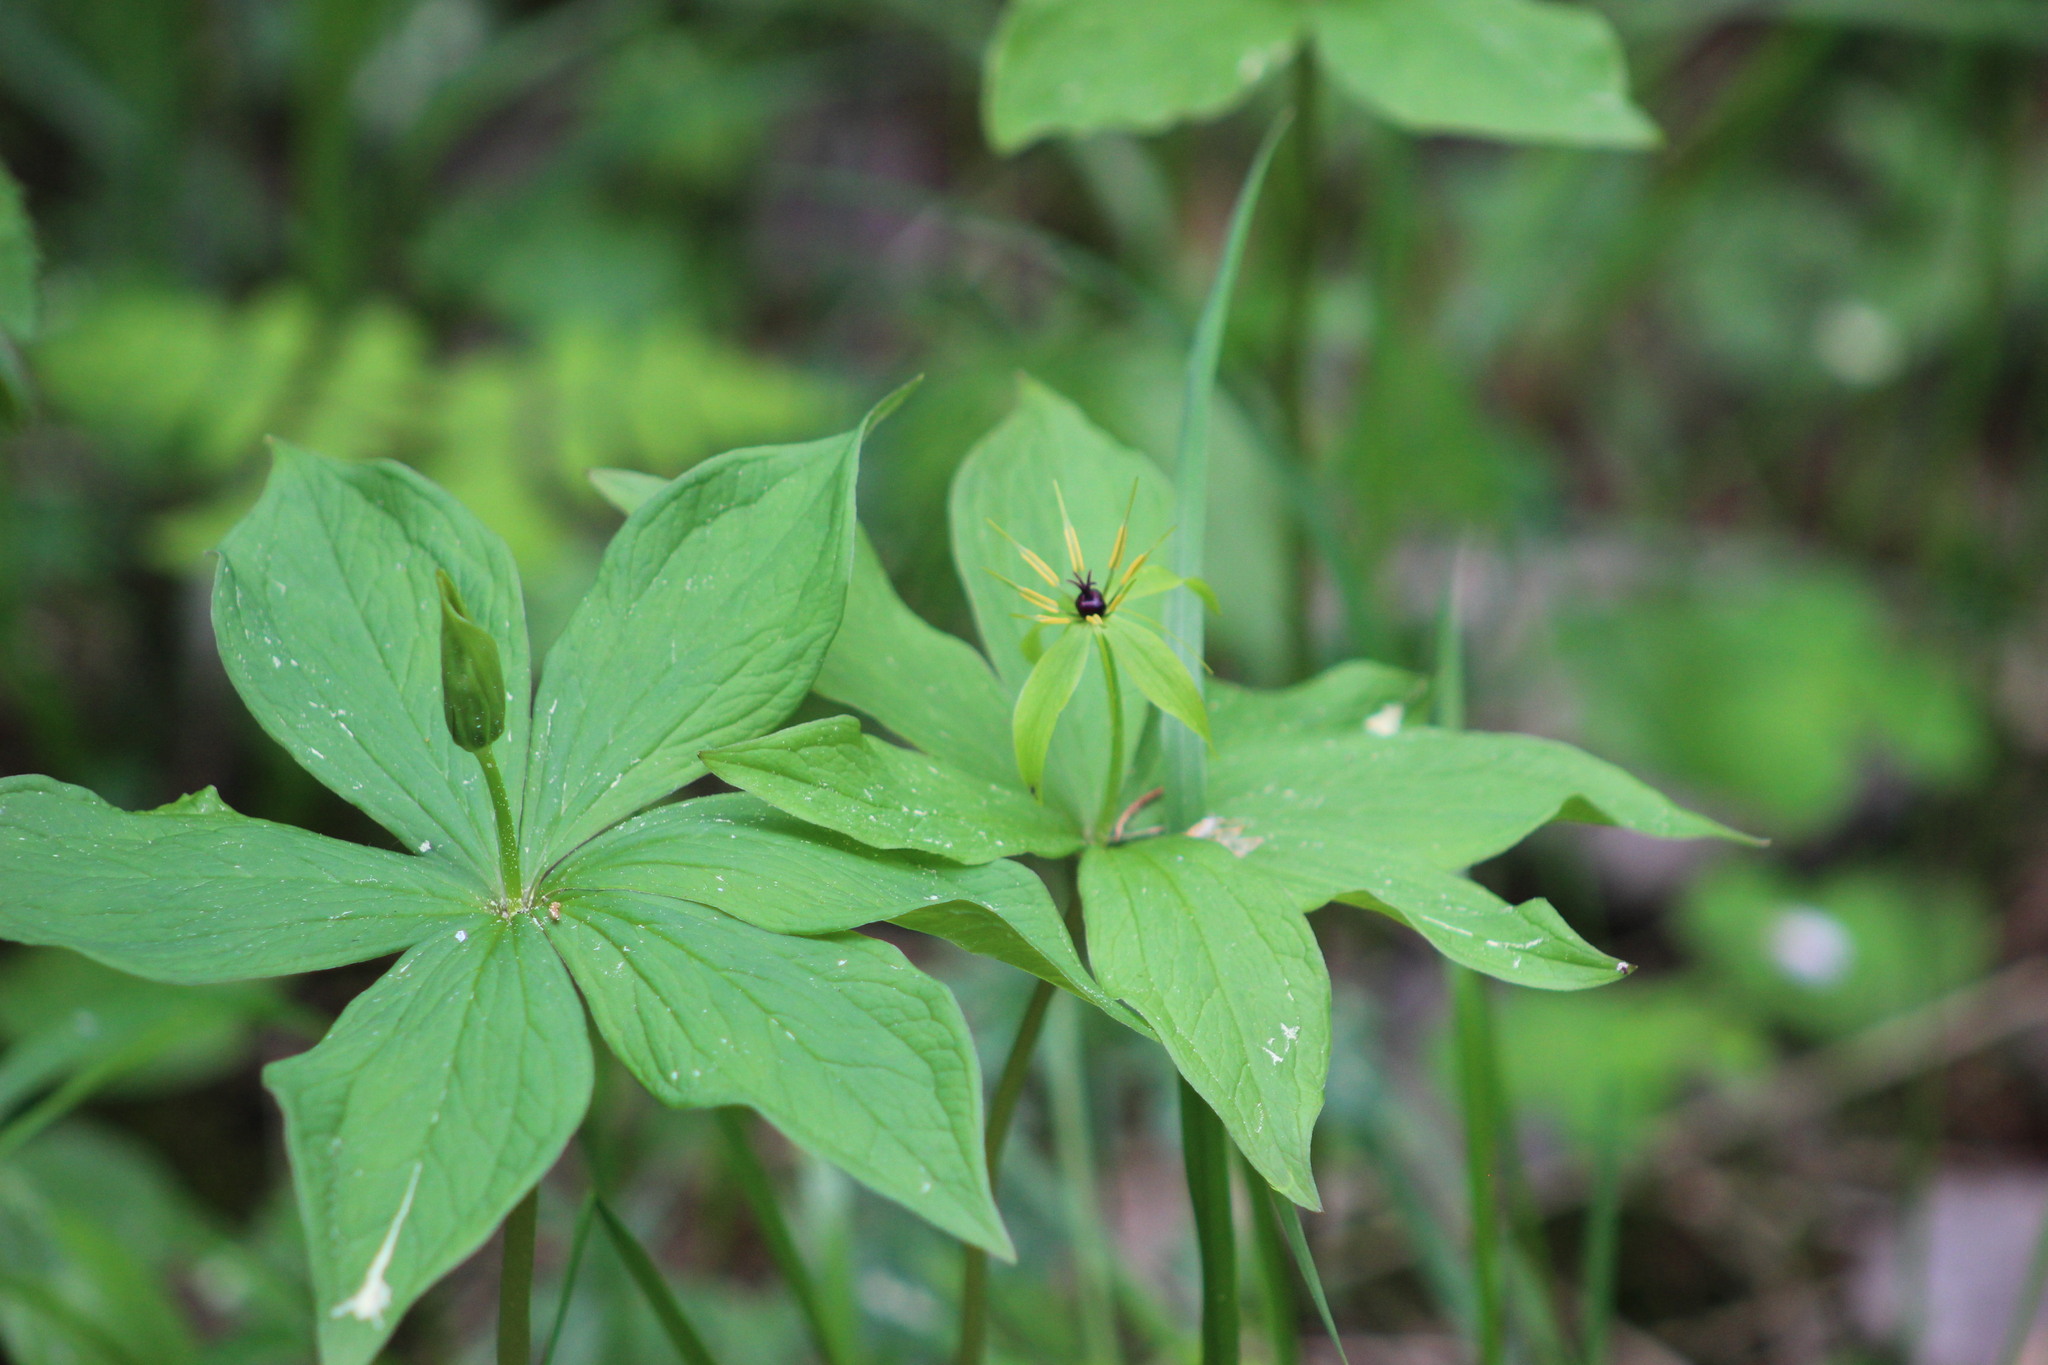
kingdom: Plantae
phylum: Tracheophyta
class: Liliopsida
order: Liliales
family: Melanthiaceae
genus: Paris
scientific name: Paris quadrifolia
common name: Herb-paris
